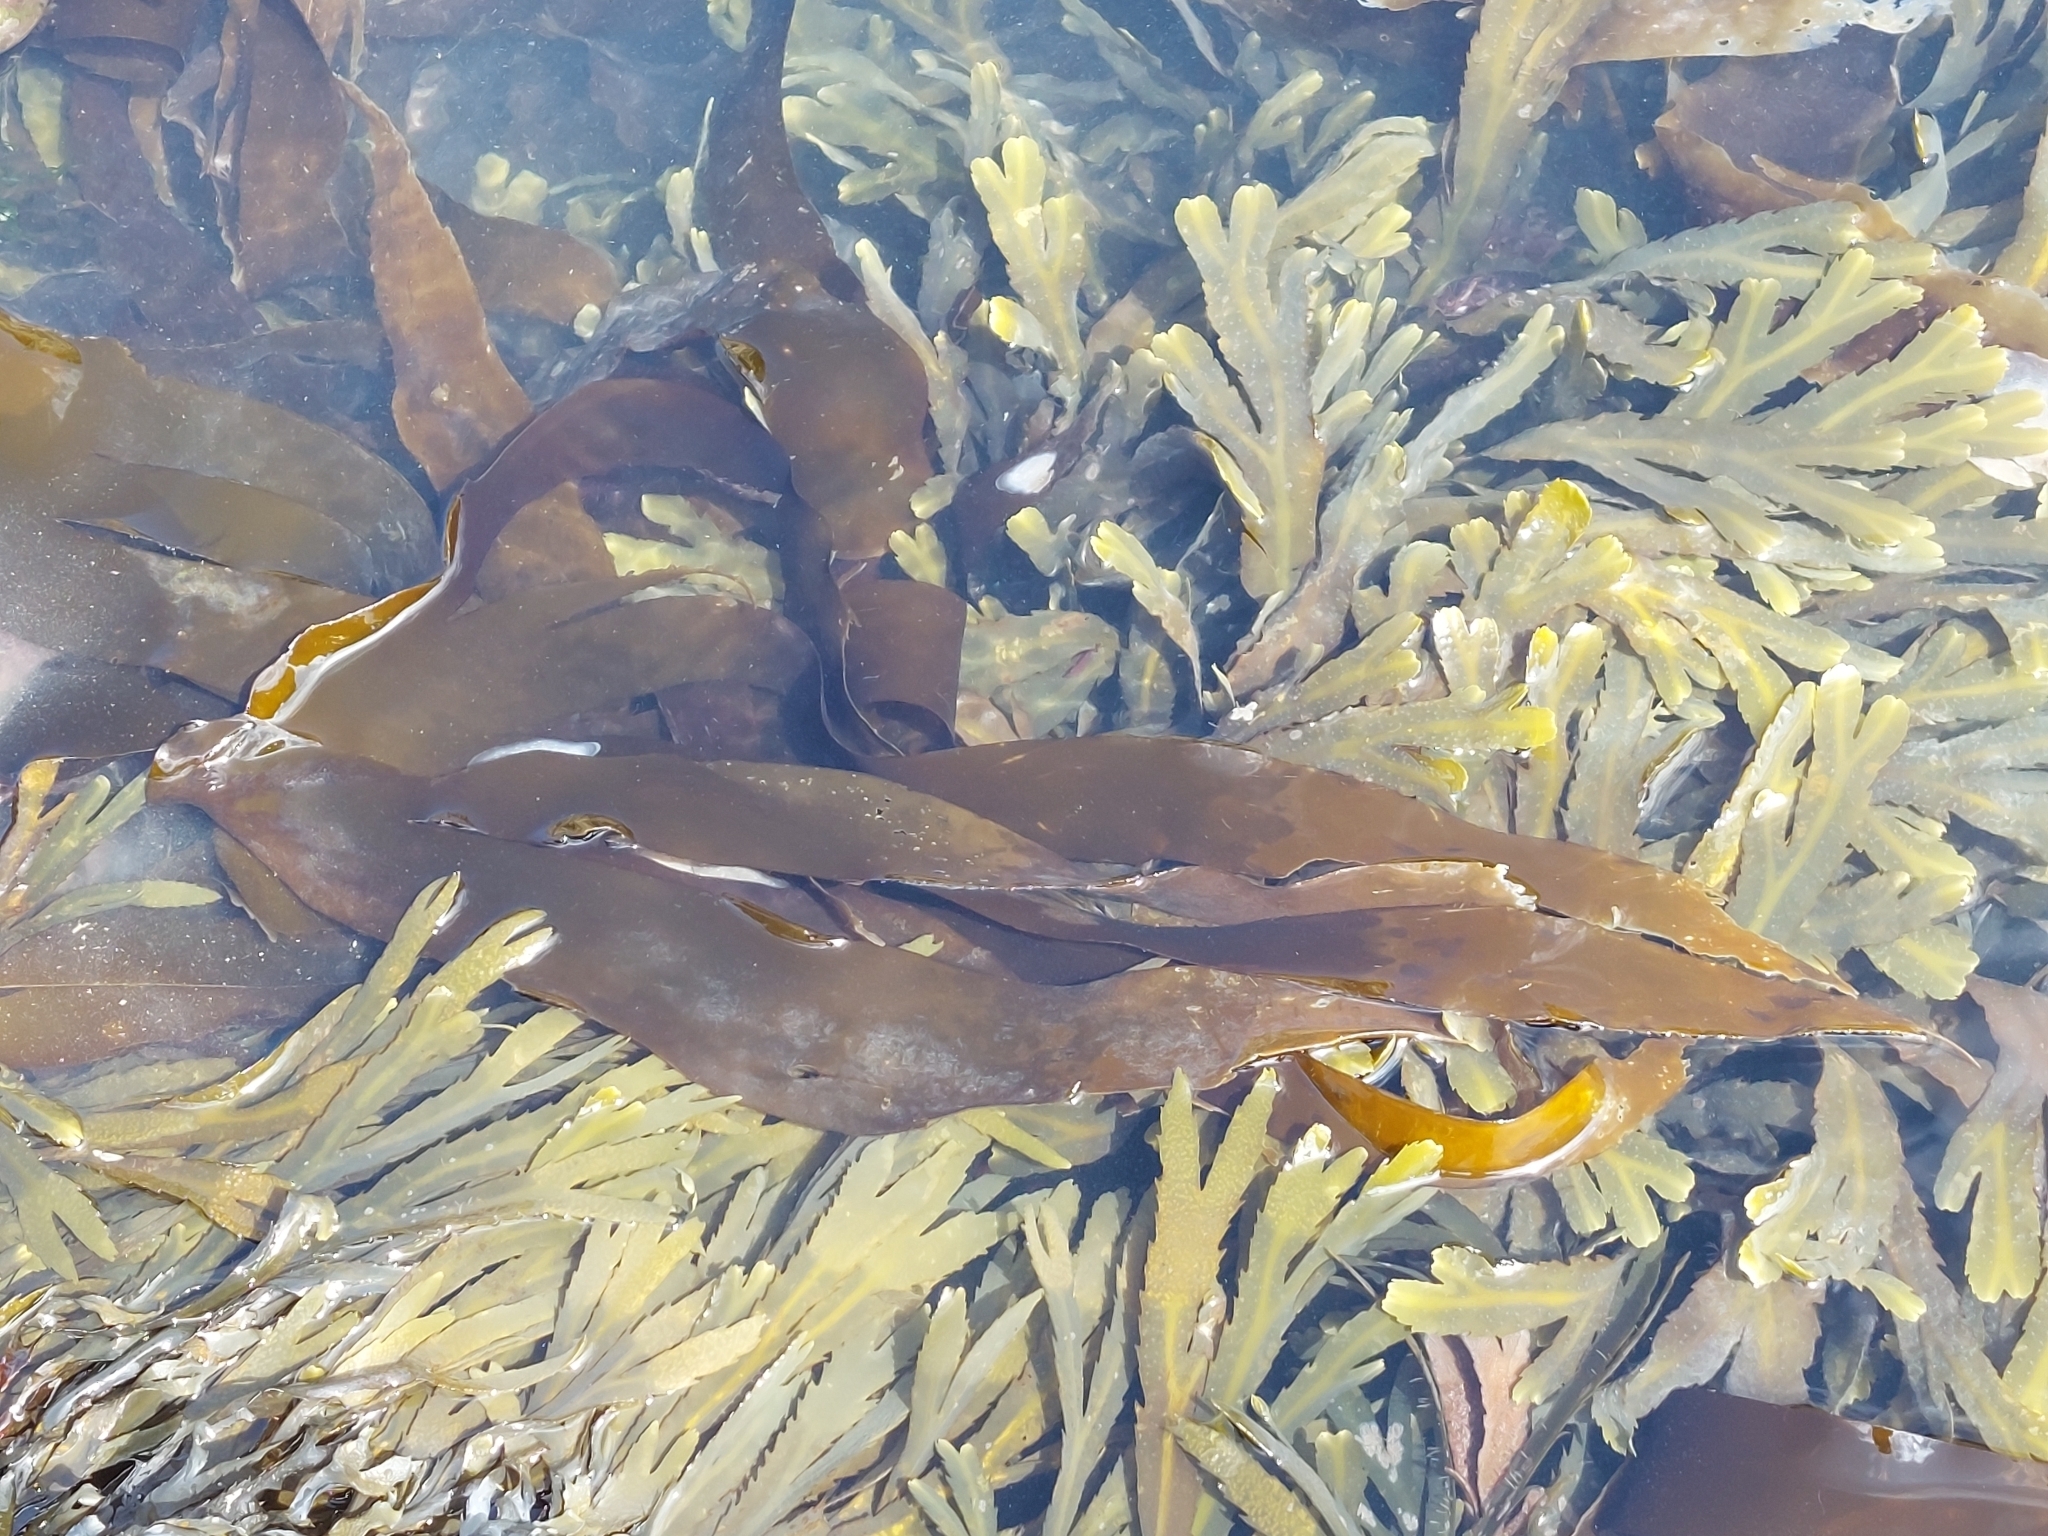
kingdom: Chromista
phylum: Ochrophyta
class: Phaeophyceae
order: Fucales
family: Fucaceae
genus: Fucus
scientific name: Fucus serratus
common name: Toothed wrack
